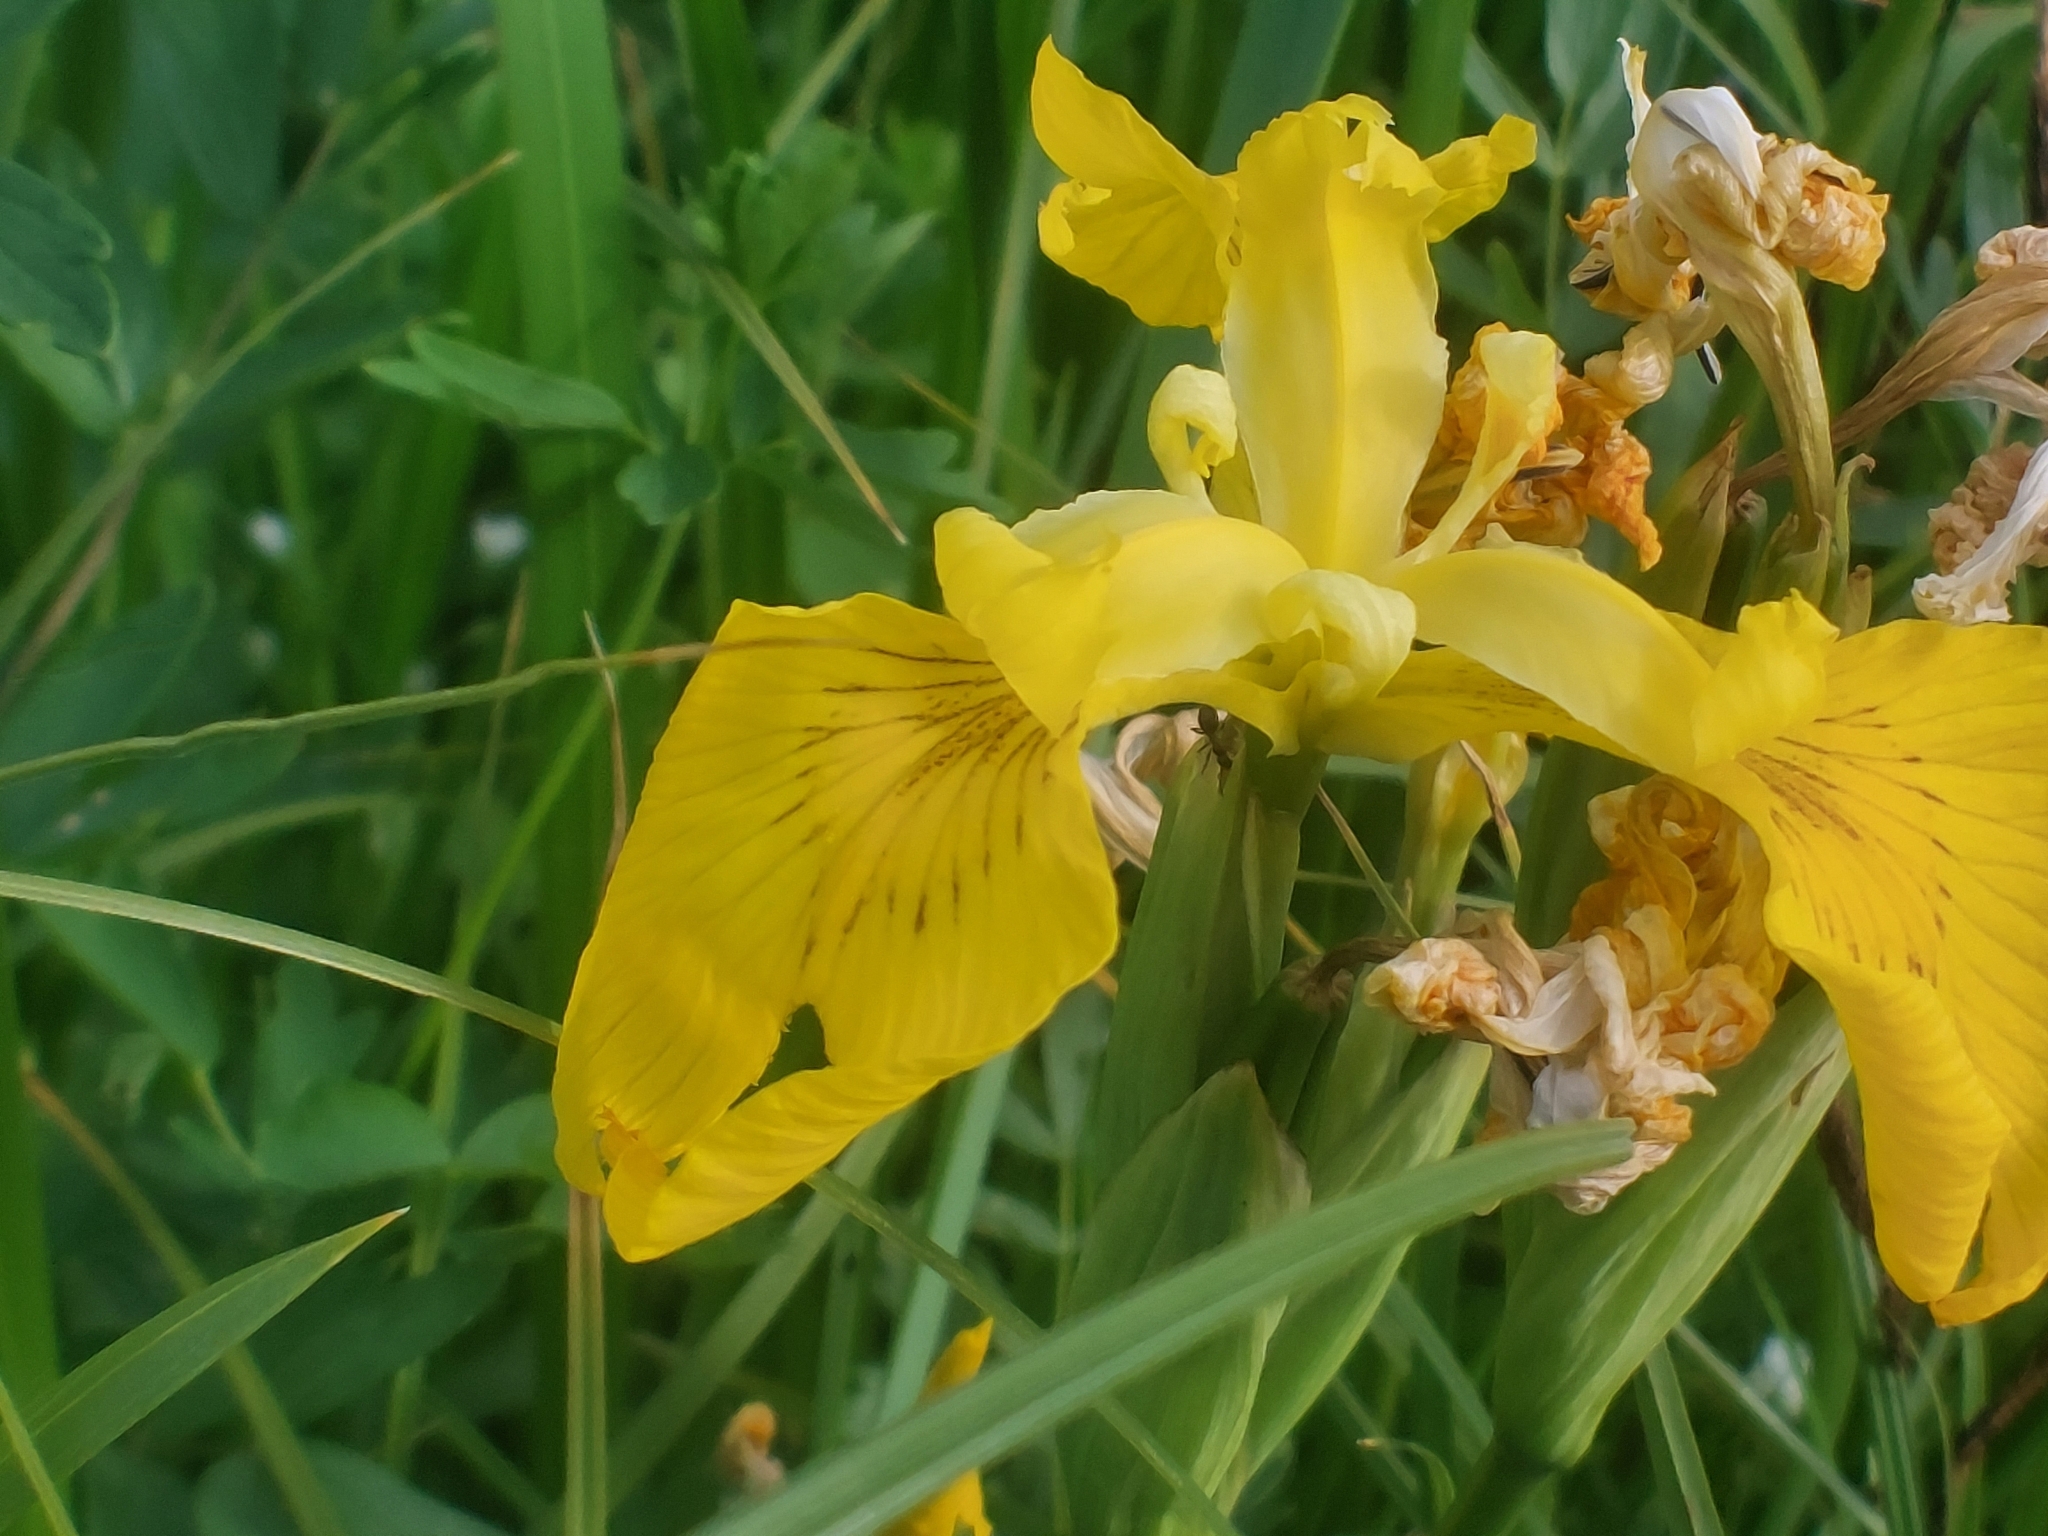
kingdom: Plantae
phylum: Tracheophyta
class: Liliopsida
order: Asparagales
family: Iridaceae
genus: Iris
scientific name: Iris pseudacorus
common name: Yellow flag
